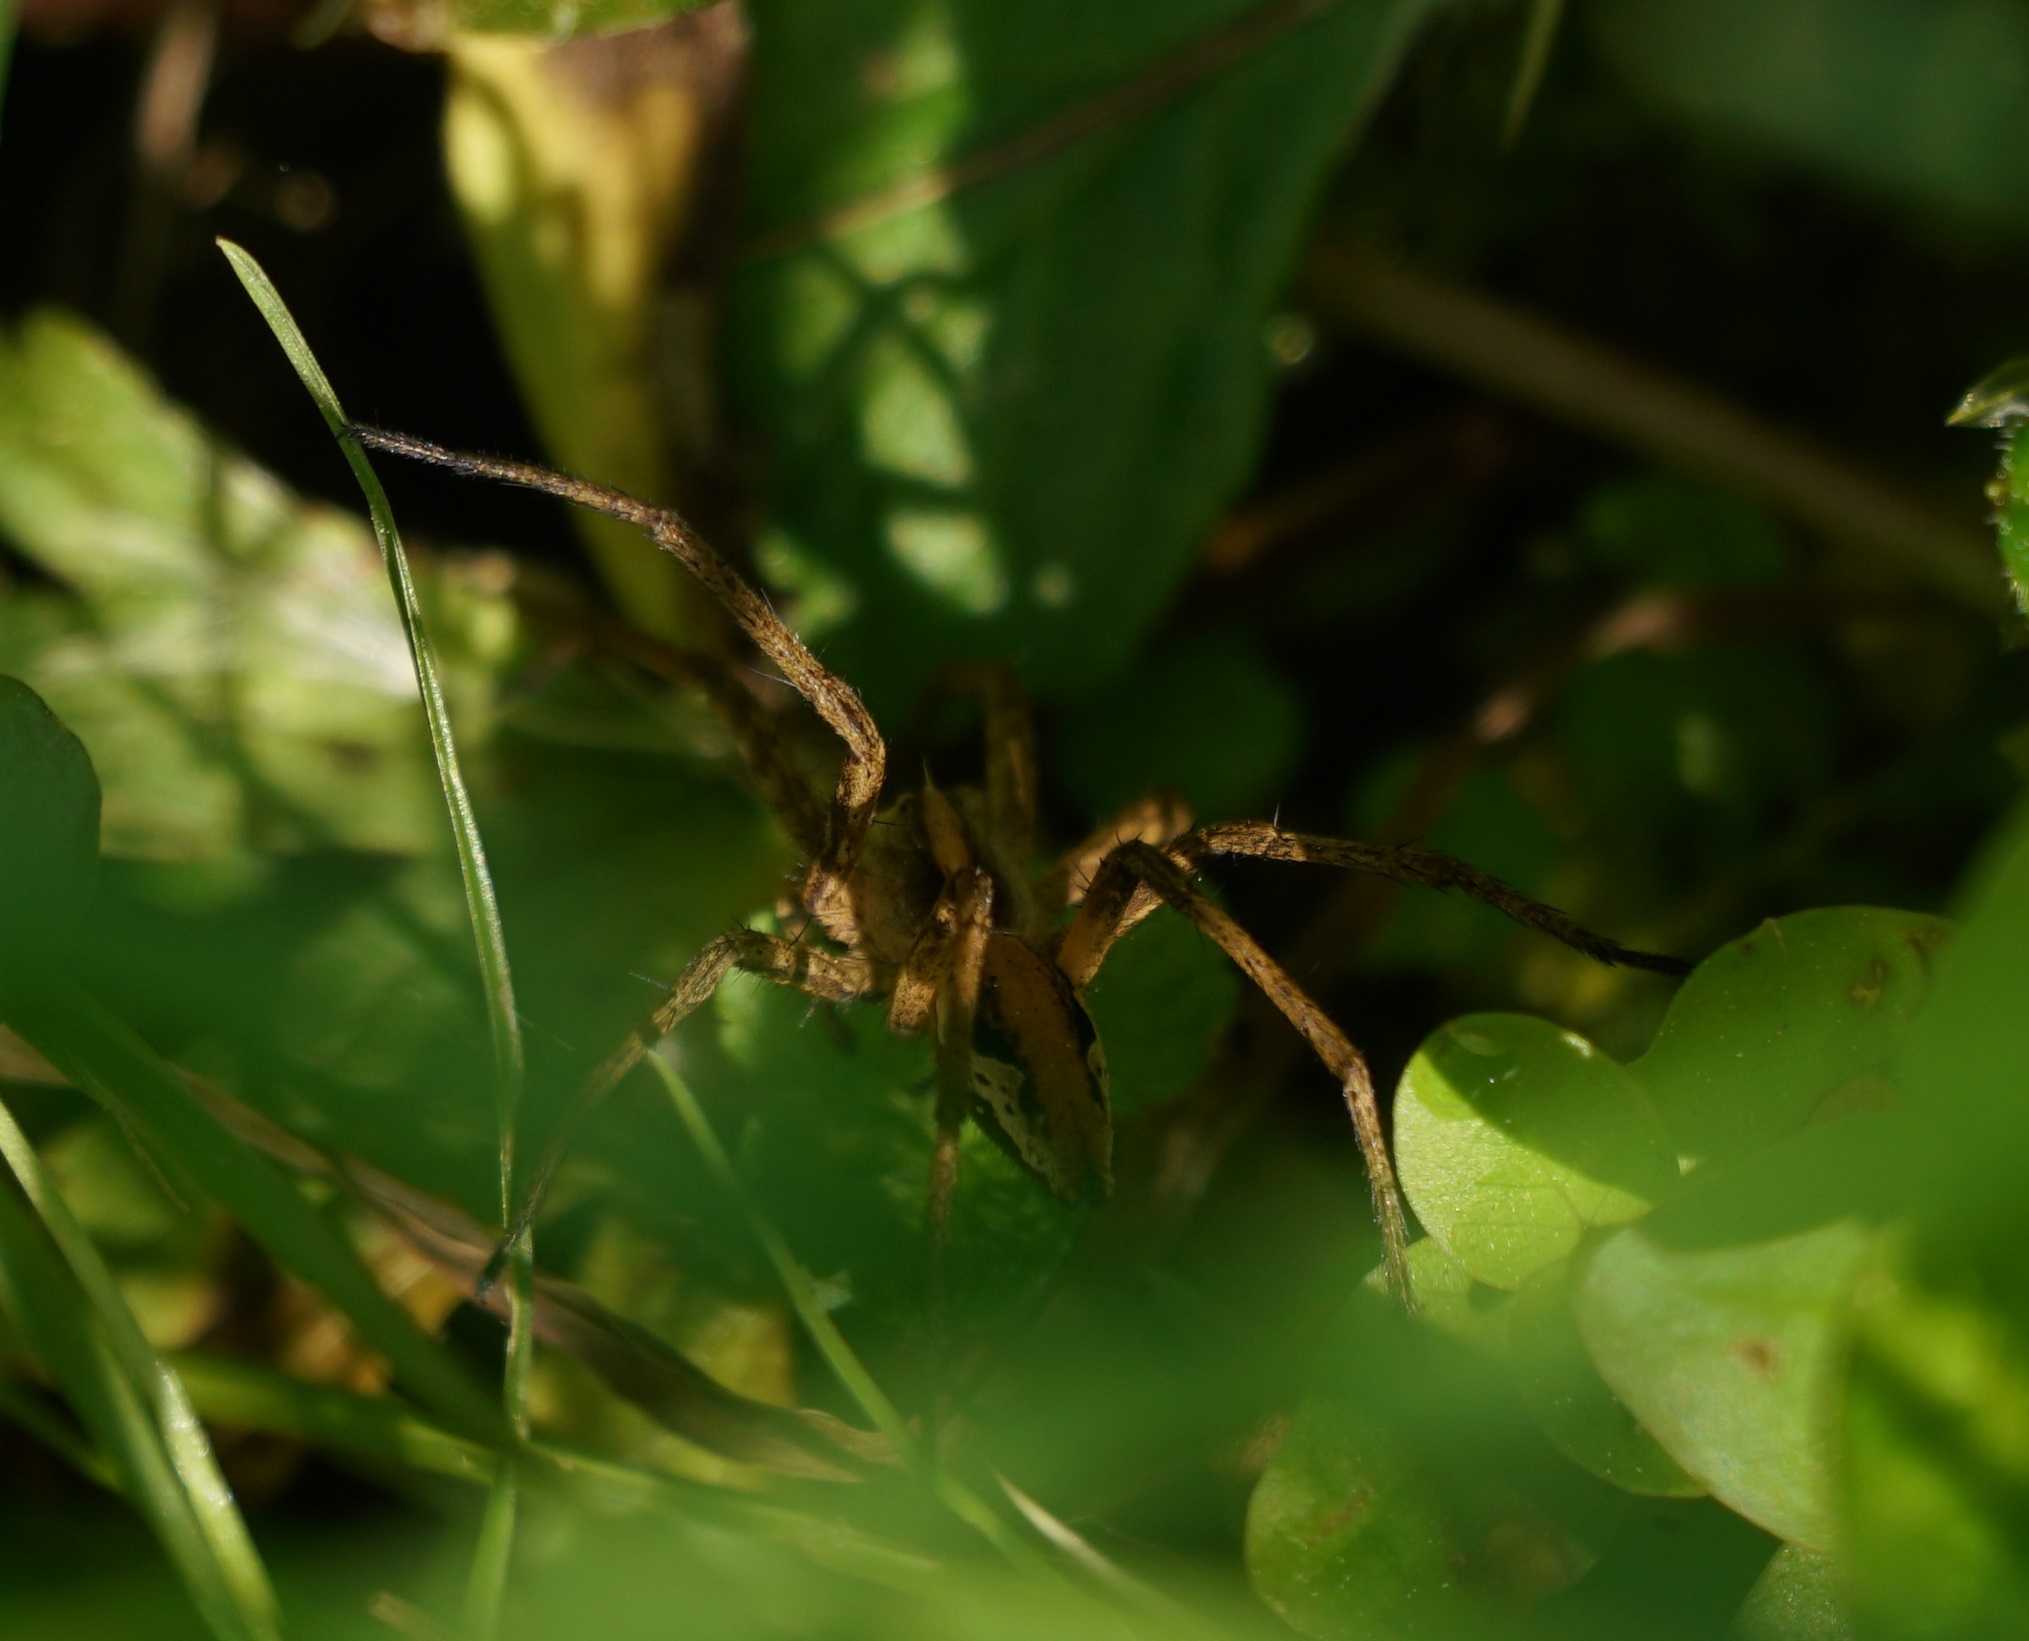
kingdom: Animalia
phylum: Arthropoda
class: Arachnida
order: Araneae
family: Pisauridae
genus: Pisaura
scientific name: Pisaura mirabilis
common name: Tent spider
